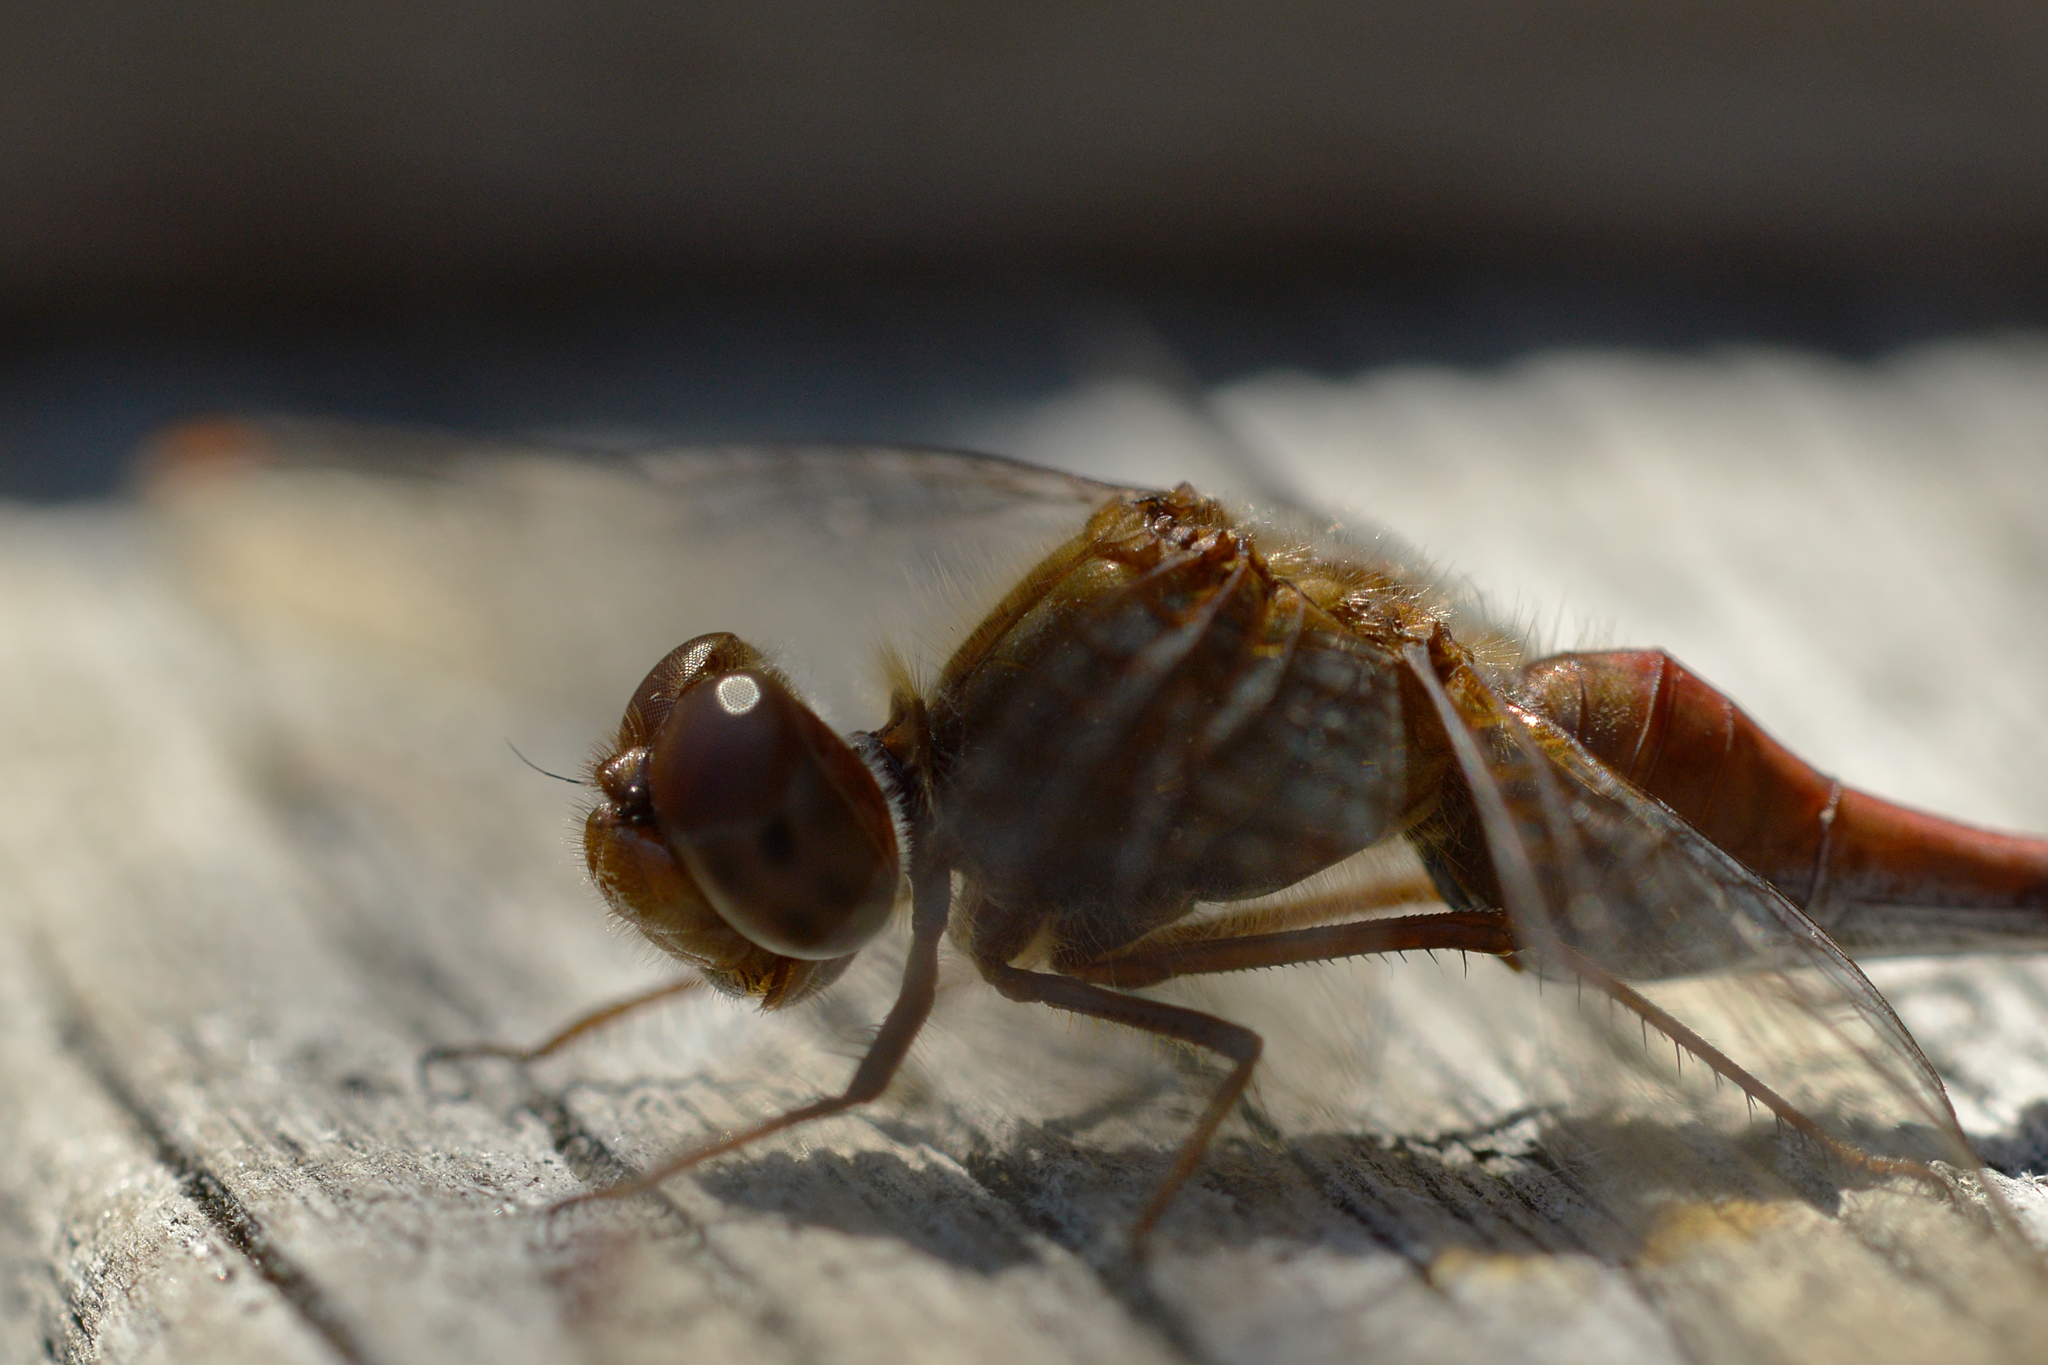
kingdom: Animalia
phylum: Arthropoda
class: Insecta
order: Odonata
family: Libellulidae
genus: Sympetrum
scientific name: Sympetrum vicinum
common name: Autumn meadowhawk
